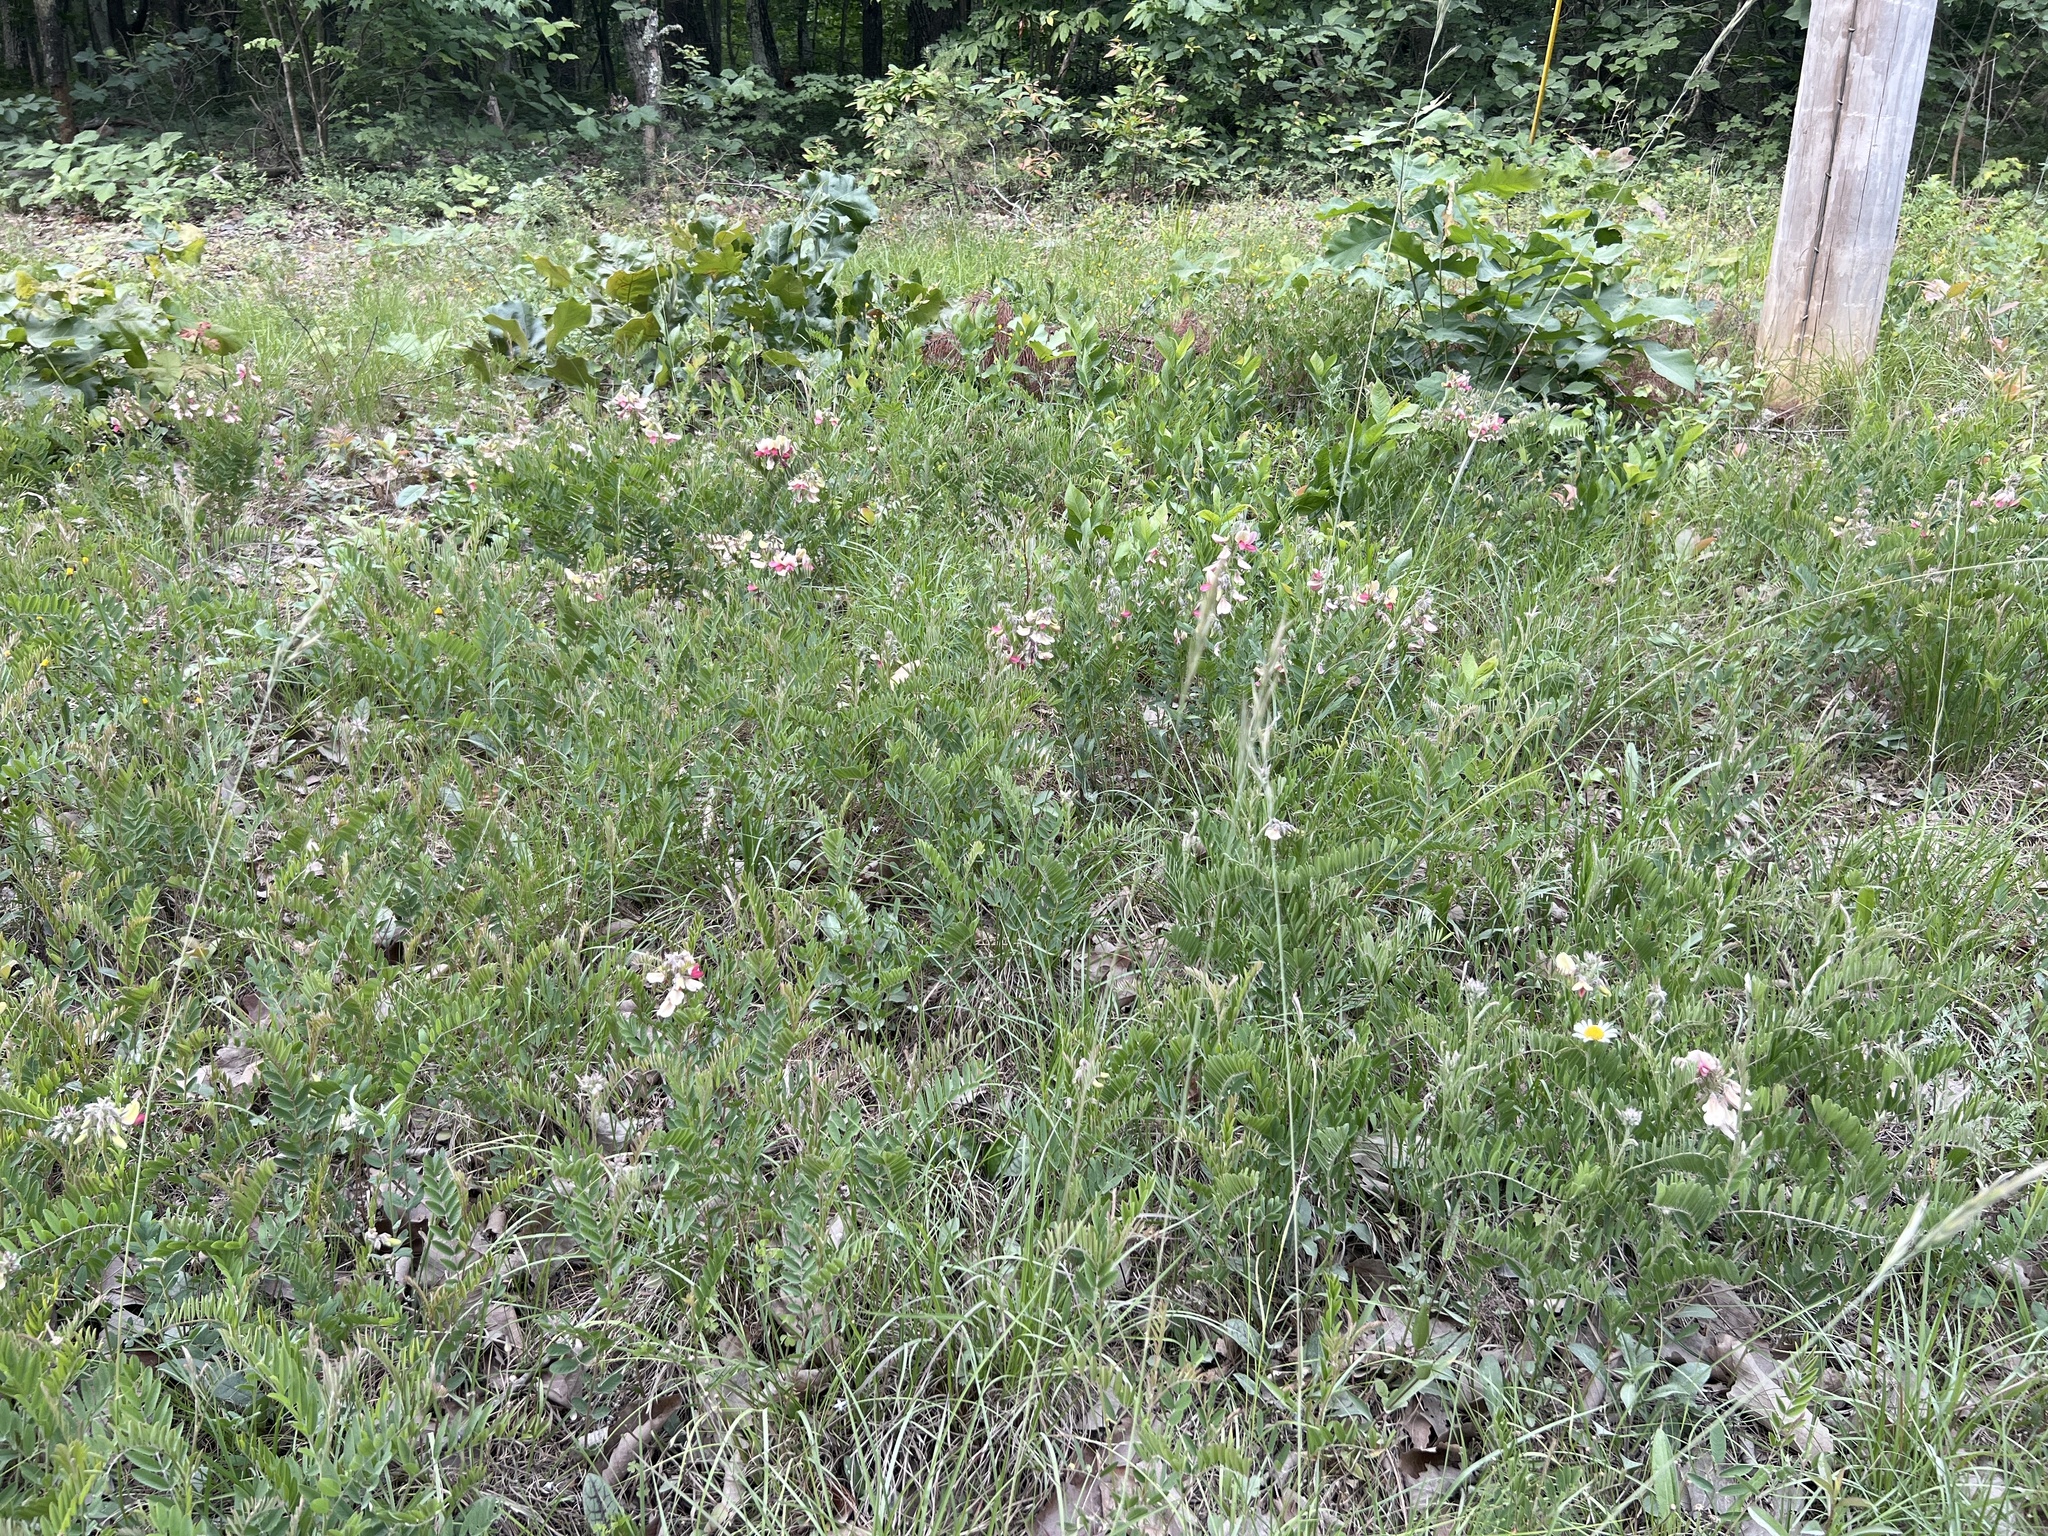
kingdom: Plantae
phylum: Tracheophyta
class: Magnoliopsida
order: Fabales
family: Fabaceae
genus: Tephrosia
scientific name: Tephrosia virginiana
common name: Rabbit-pea
